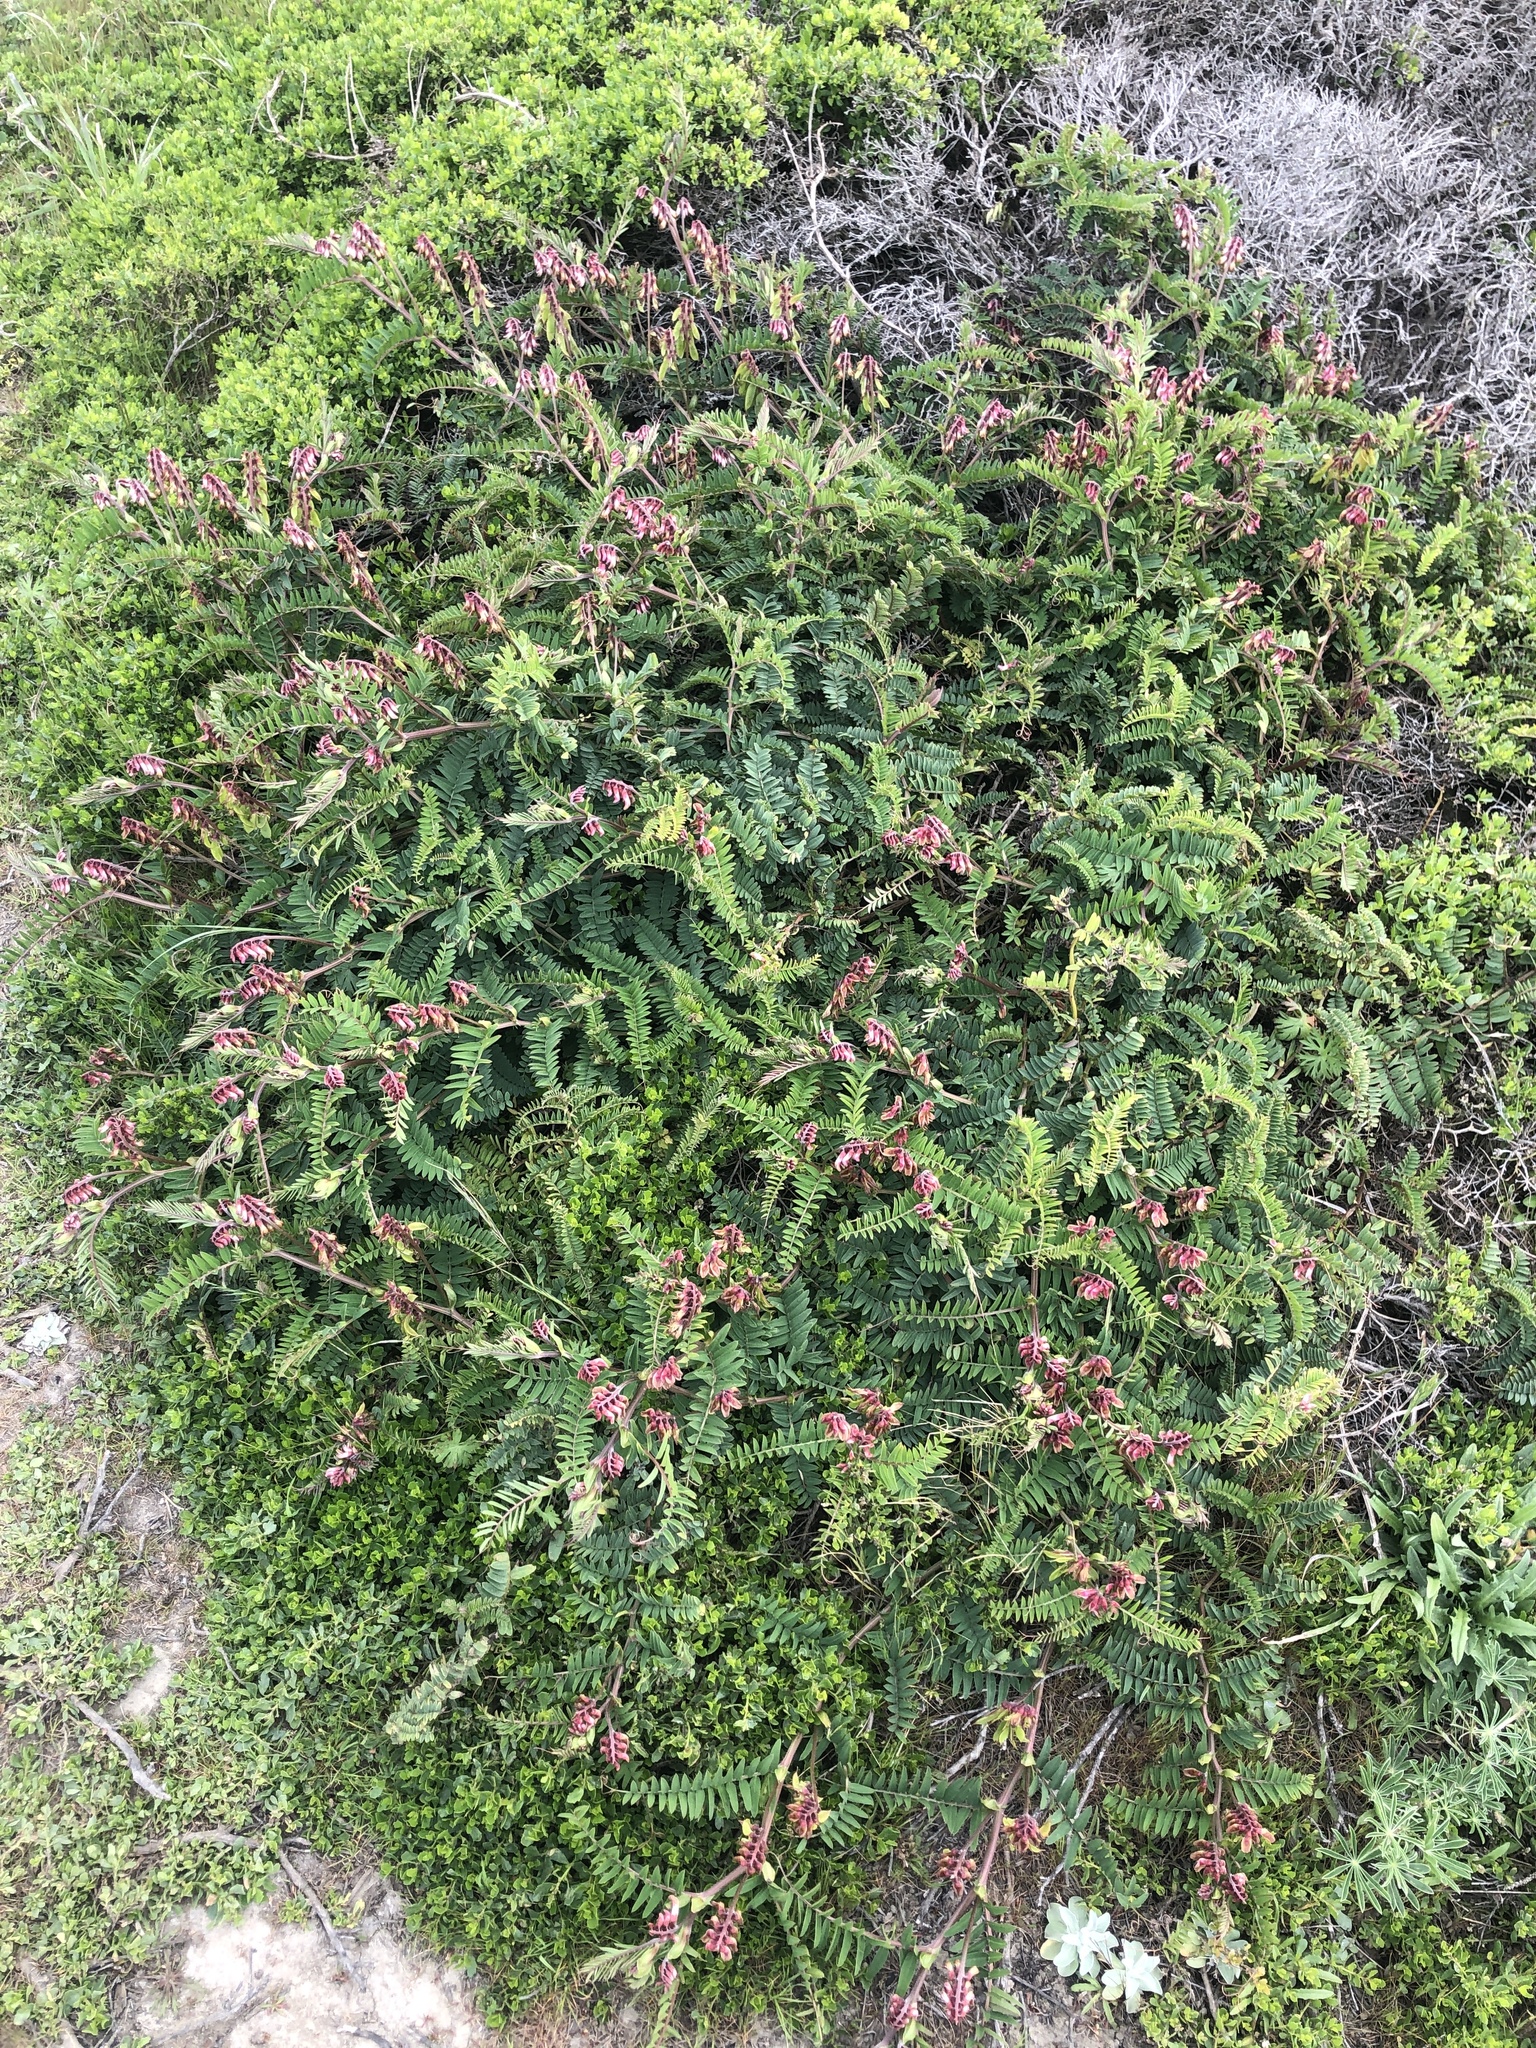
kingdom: Plantae
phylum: Tracheophyta
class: Magnoliopsida
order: Fabales
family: Fabaceae
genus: Vicia
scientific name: Vicia
